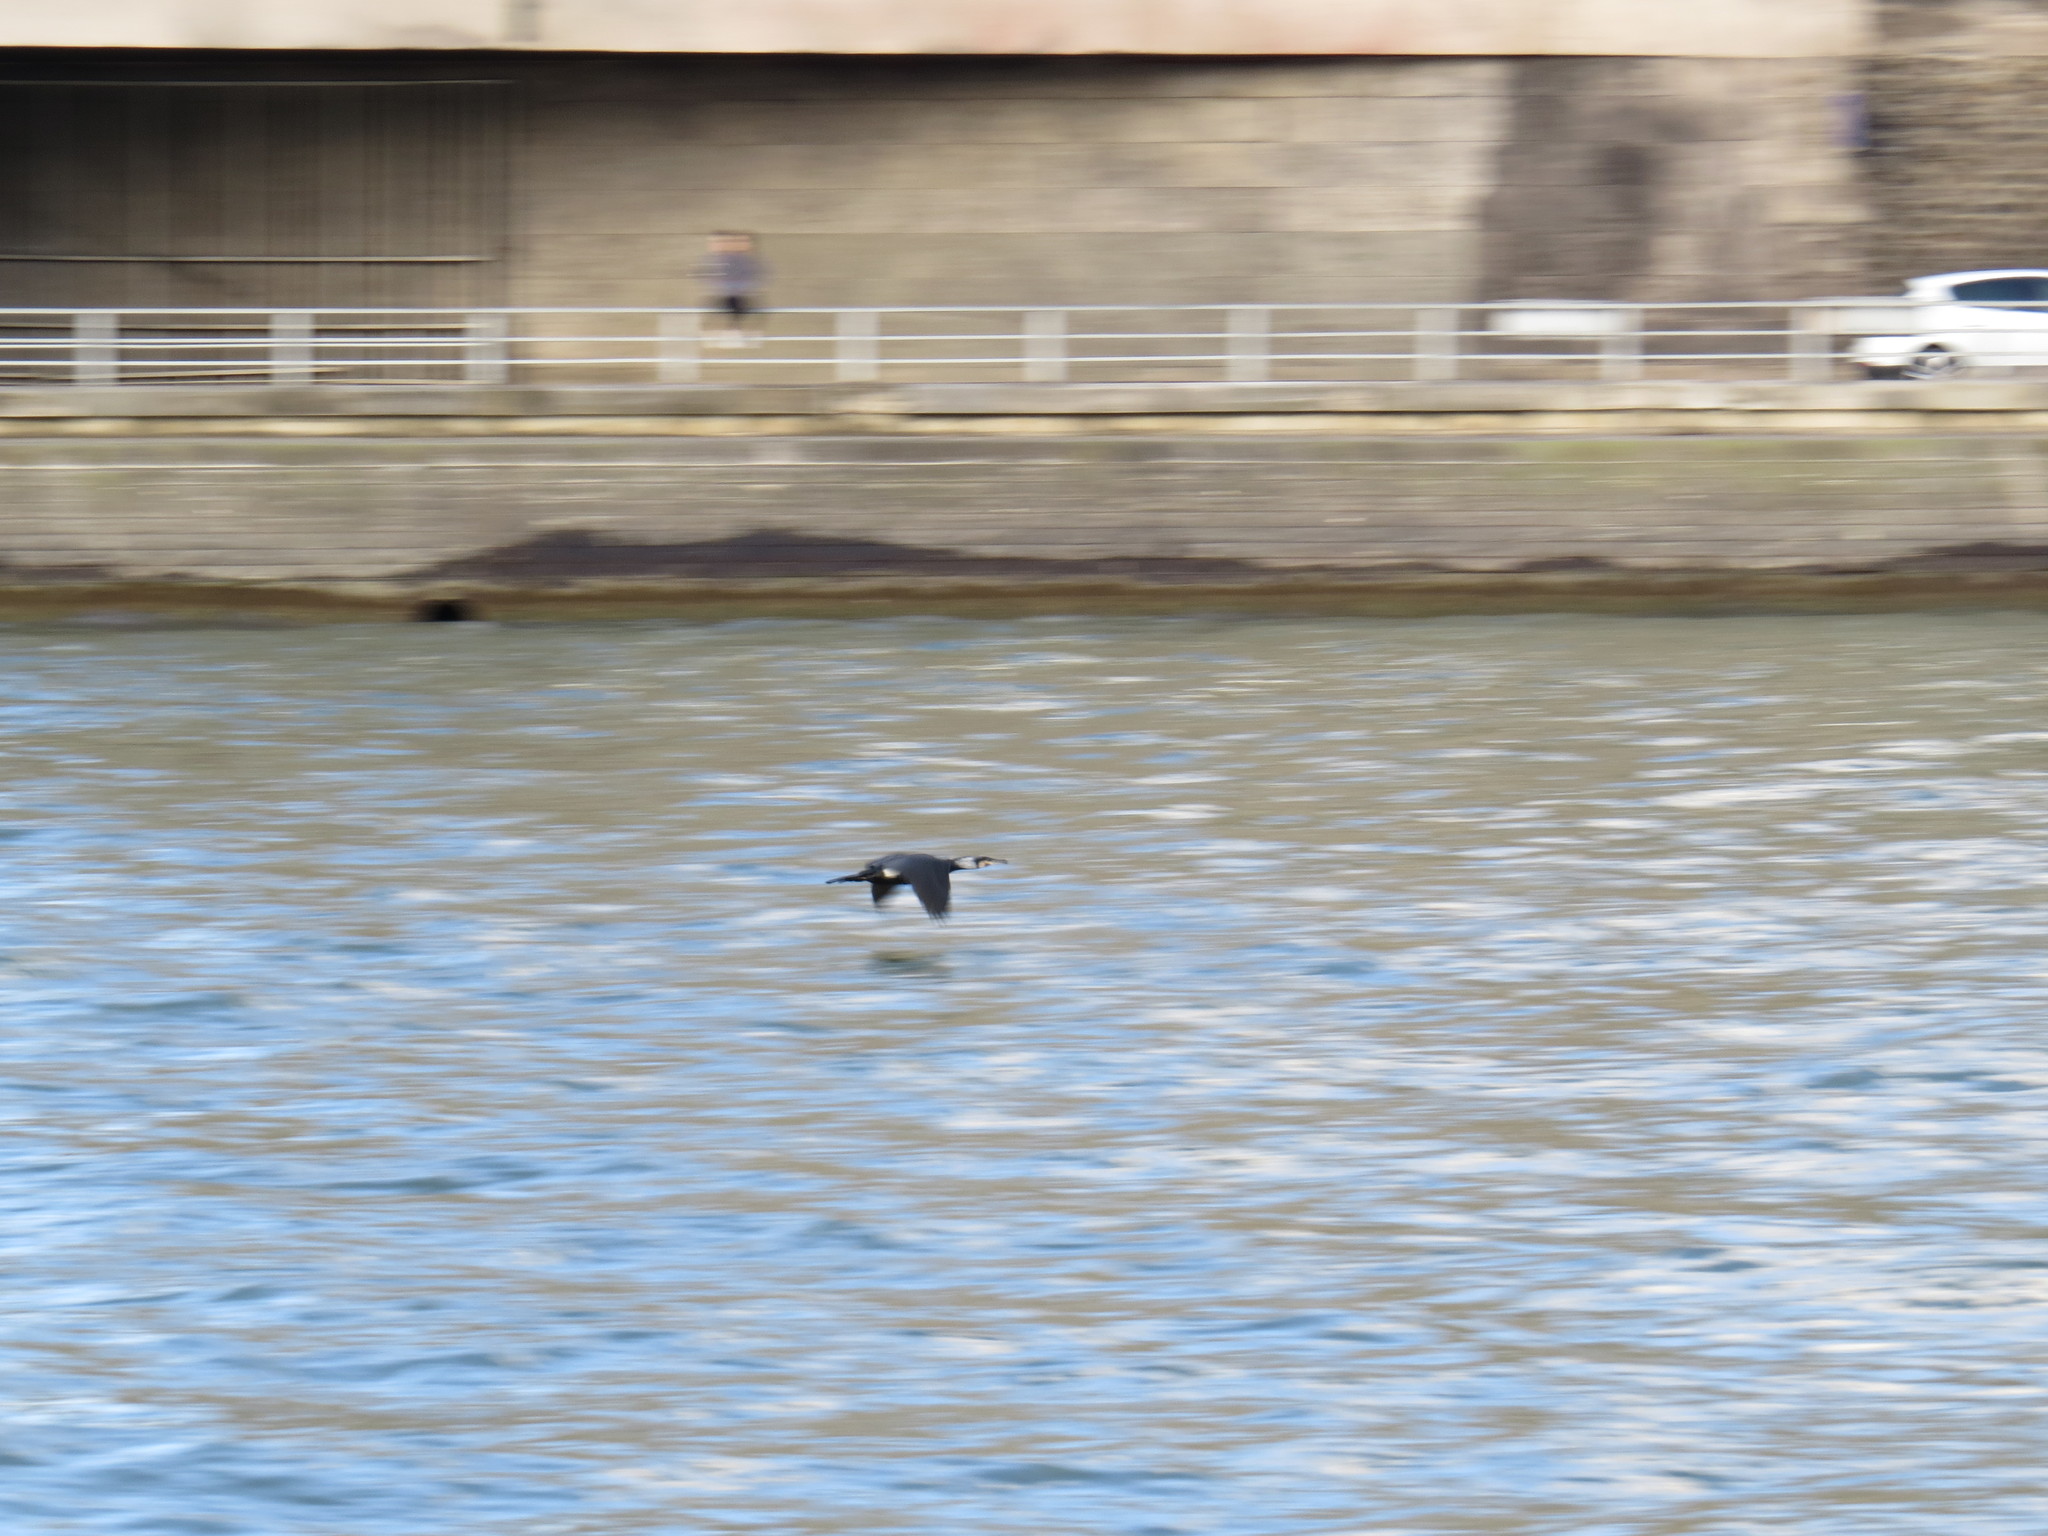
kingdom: Animalia
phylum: Chordata
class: Aves
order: Suliformes
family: Phalacrocoracidae
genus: Phalacrocorax
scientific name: Phalacrocorax carbo
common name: Great cormorant
